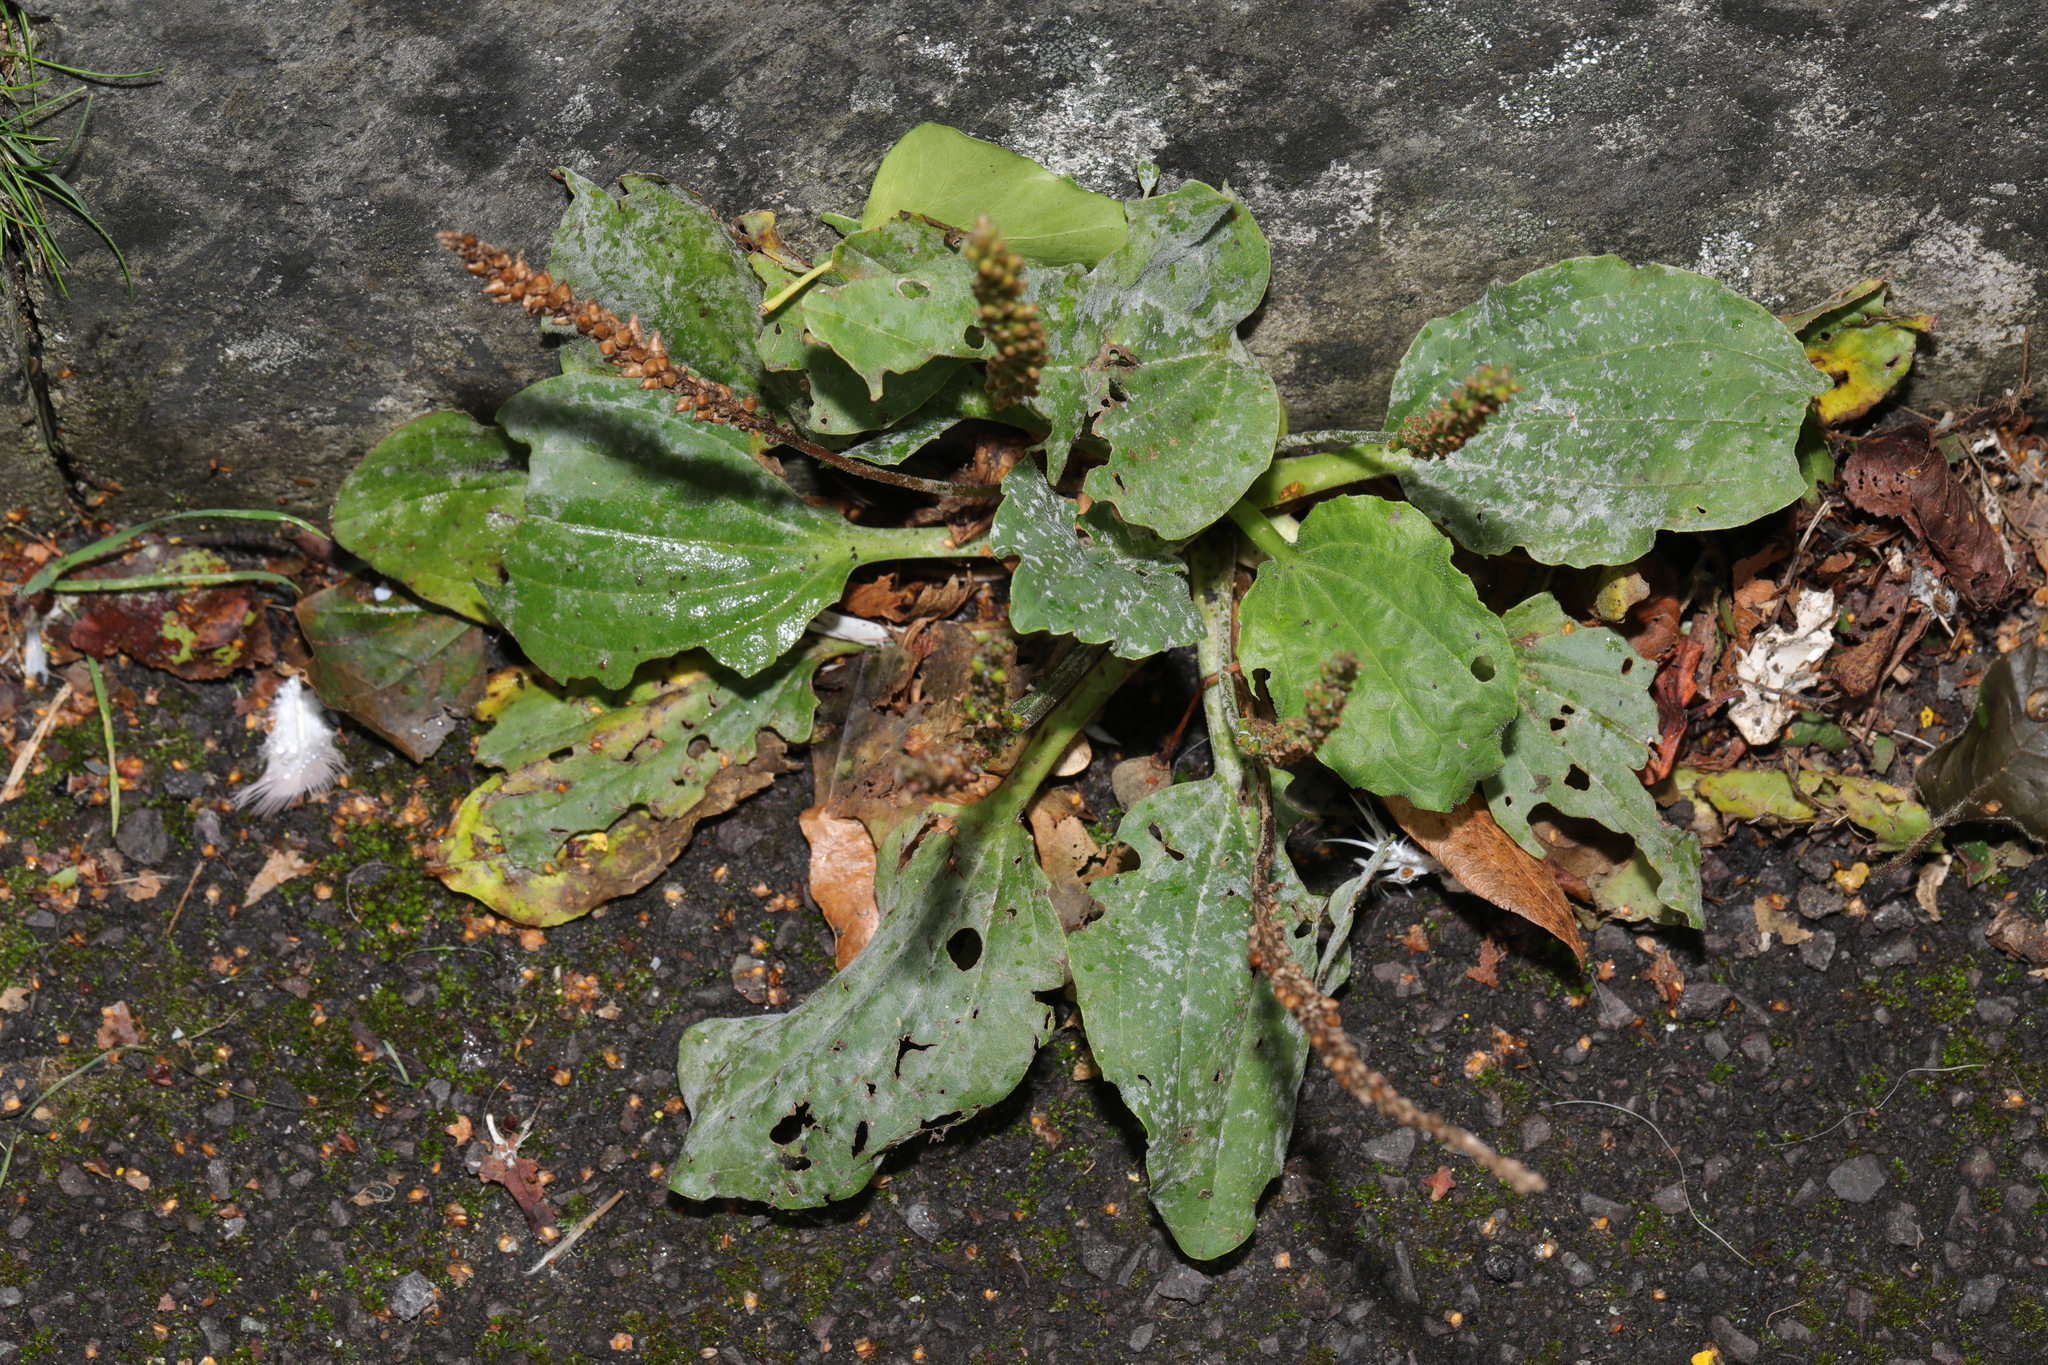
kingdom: Plantae
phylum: Tracheophyta
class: Magnoliopsida
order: Lamiales
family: Plantaginaceae
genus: Plantago
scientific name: Plantago major
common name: Common plantain
